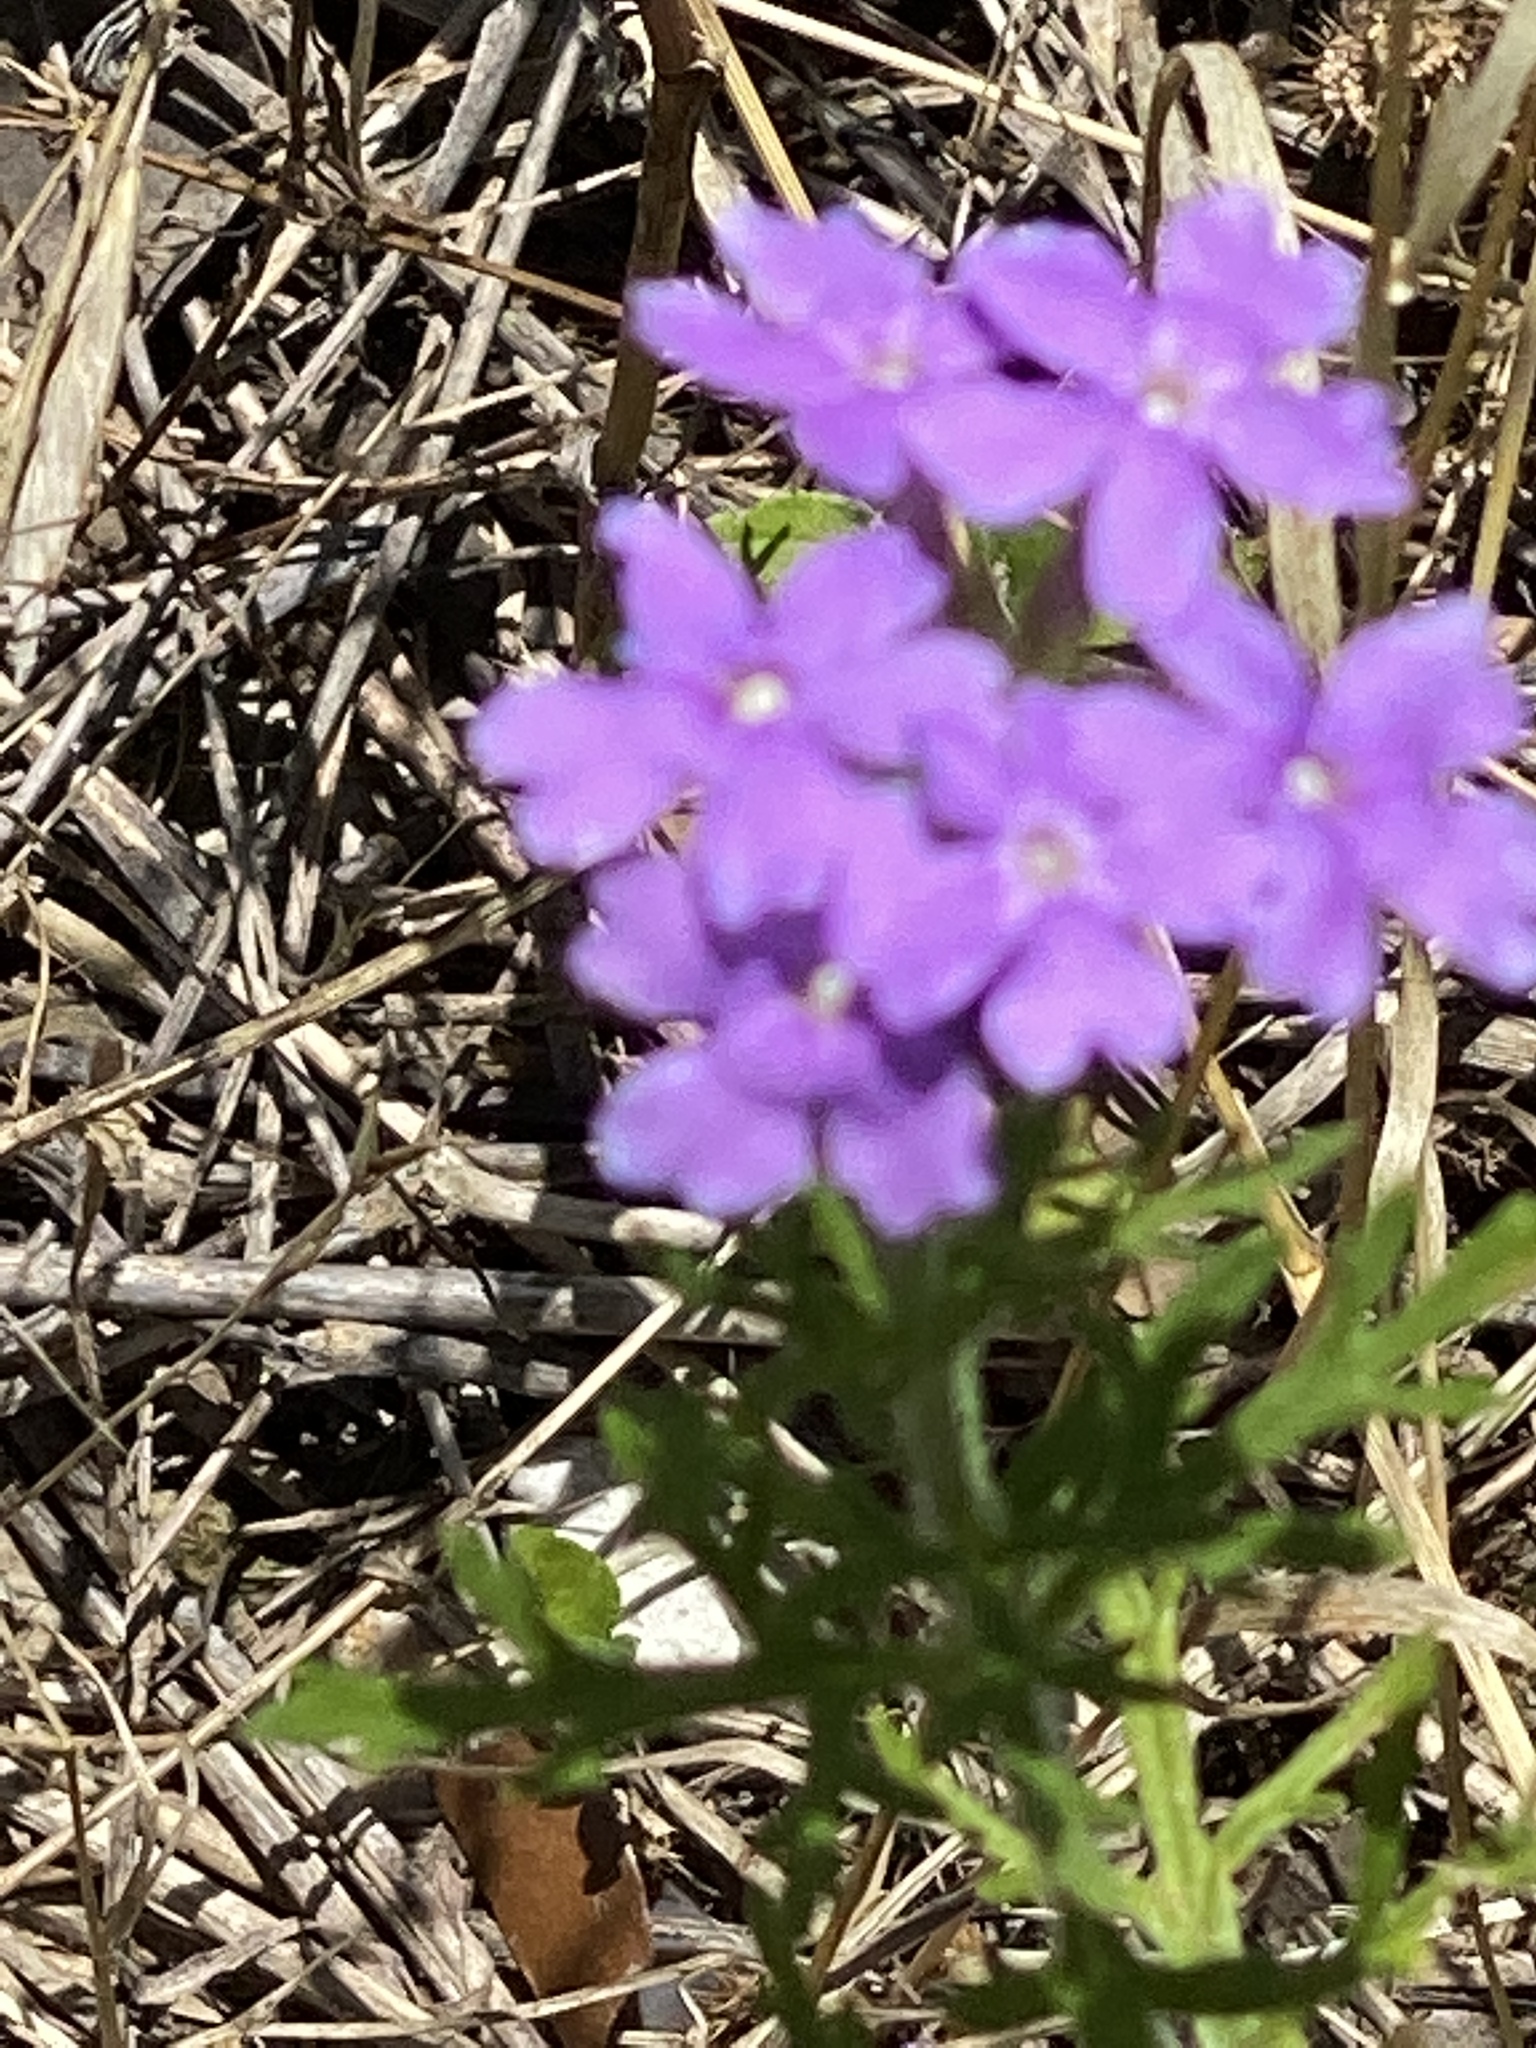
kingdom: Plantae
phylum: Tracheophyta
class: Magnoliopsida
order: Lamiales
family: Verbenaceae
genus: Verbena
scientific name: Verbena bipinnatifida
